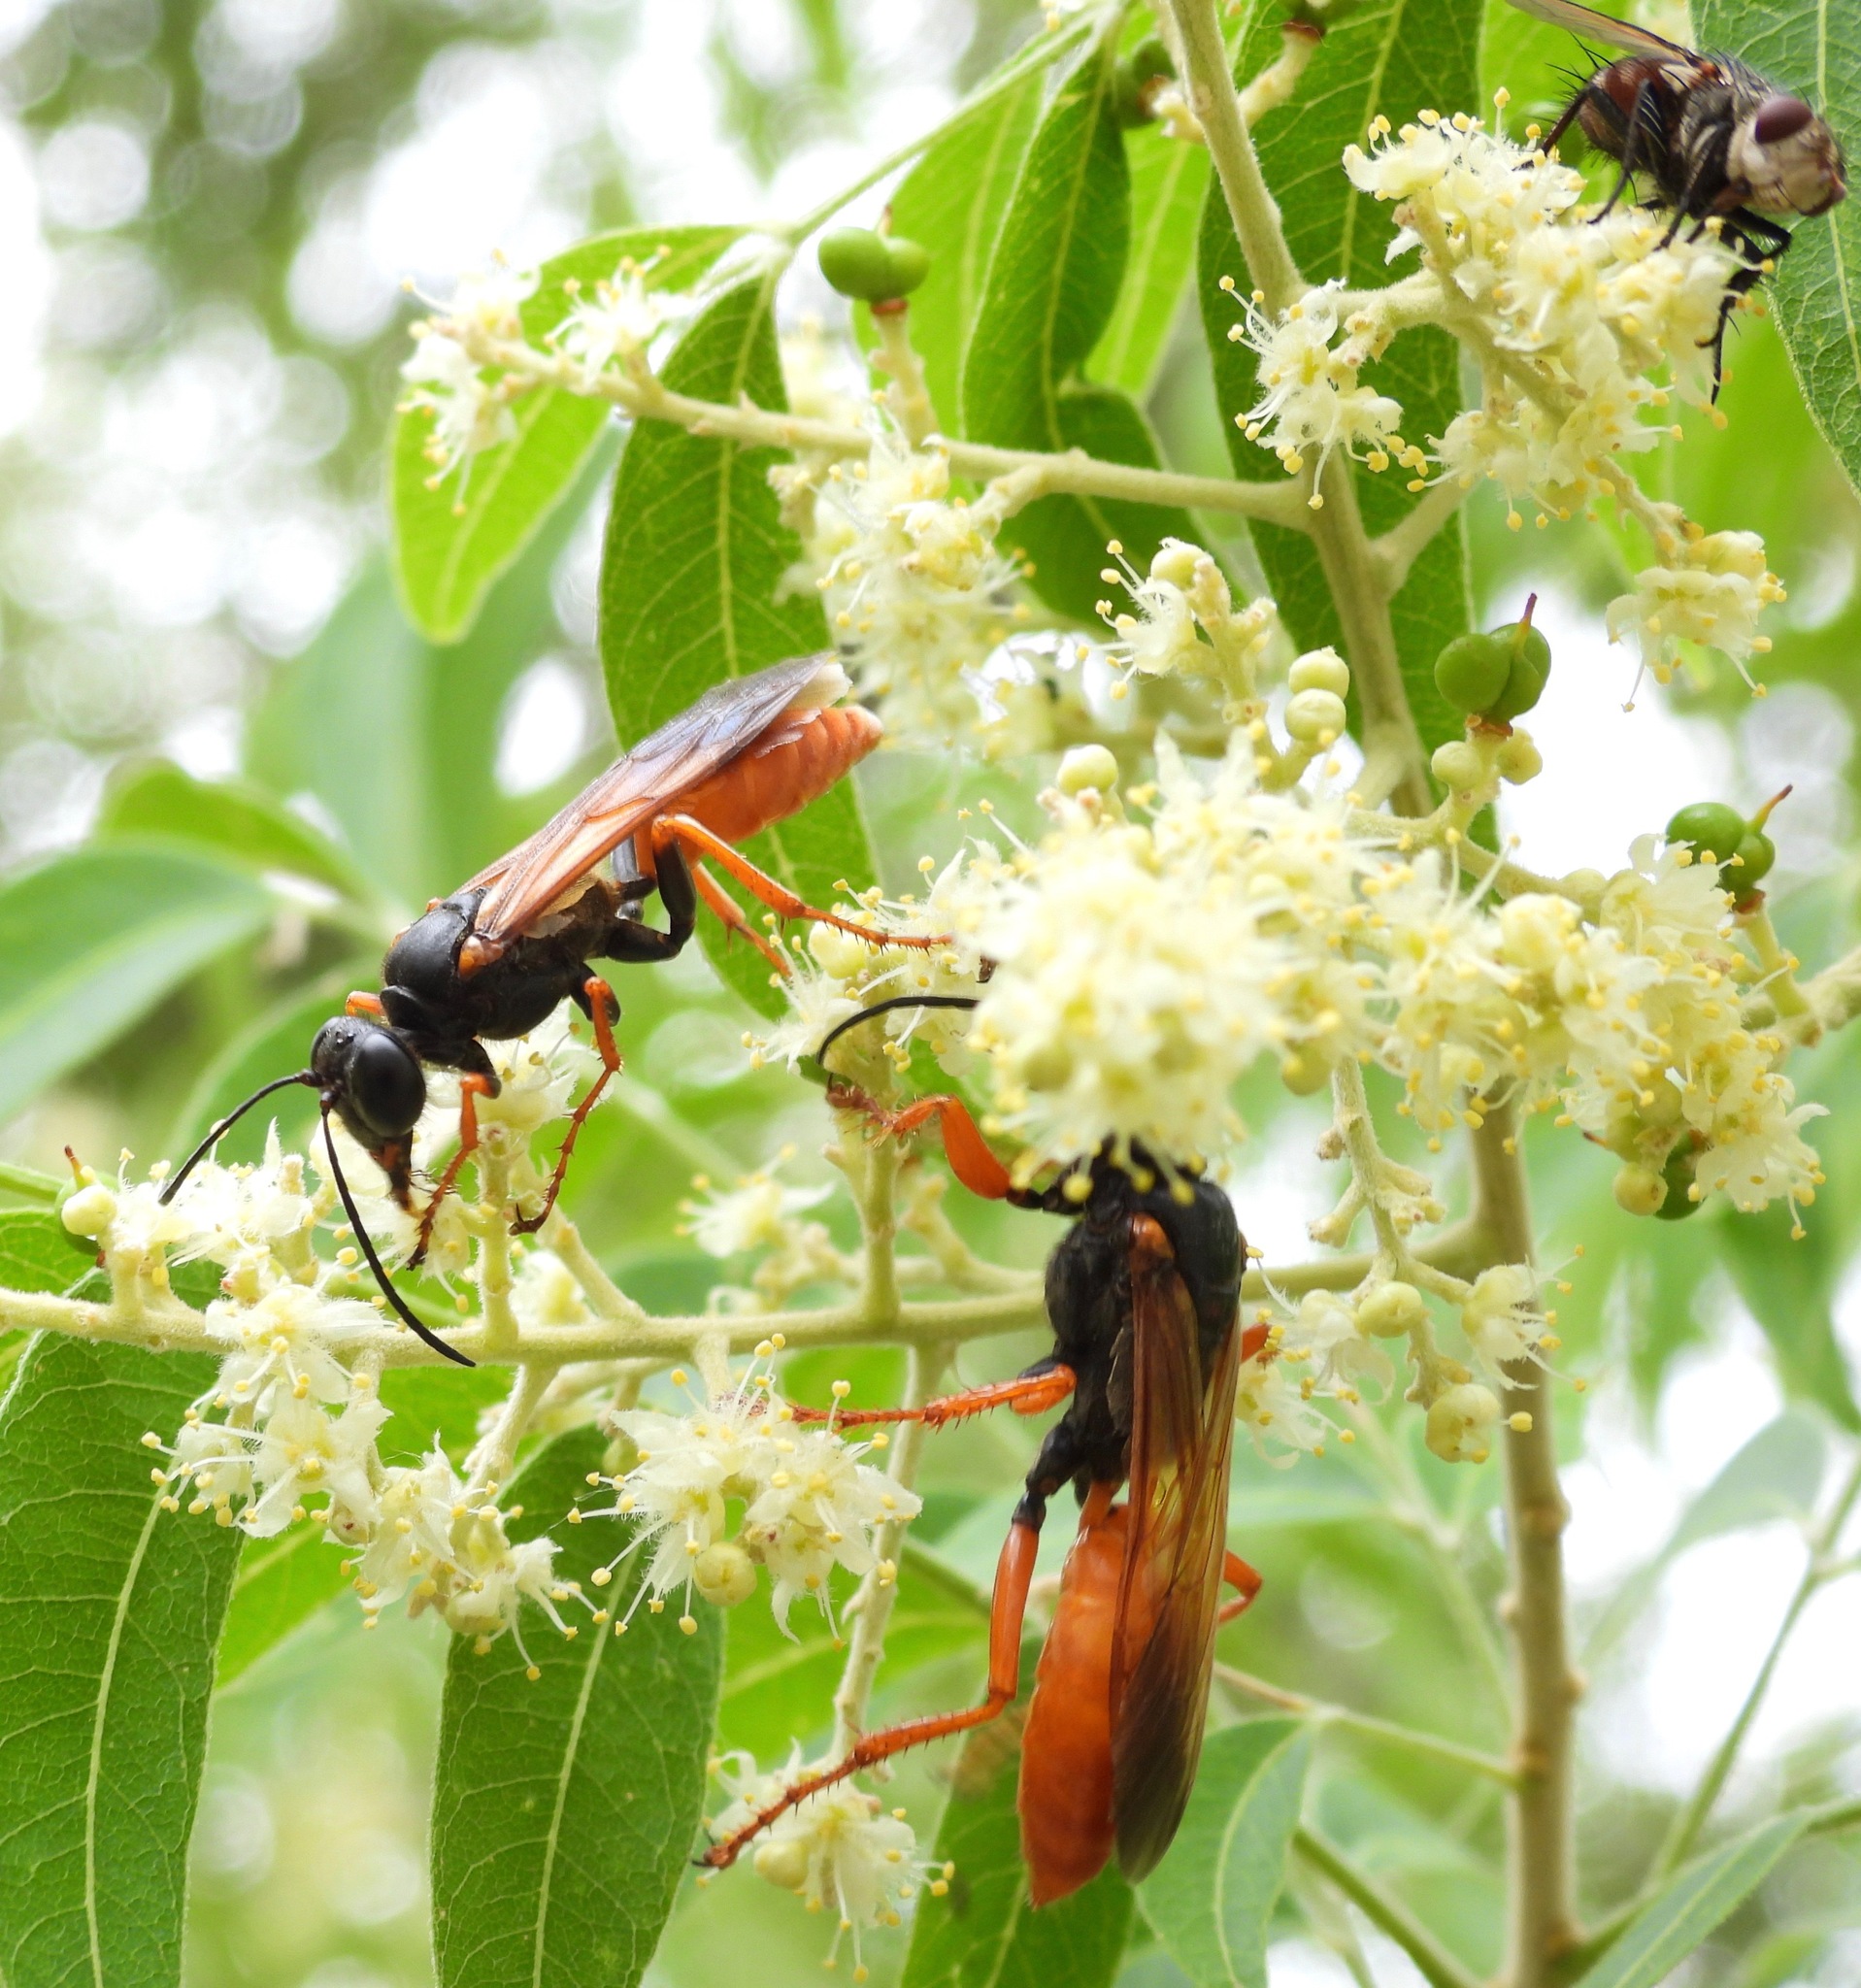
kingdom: Animalia
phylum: Arthropoda
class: Insecta
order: Hymenoptera
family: Sphecidae
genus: Sphex
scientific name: Sphex ashmeadi
